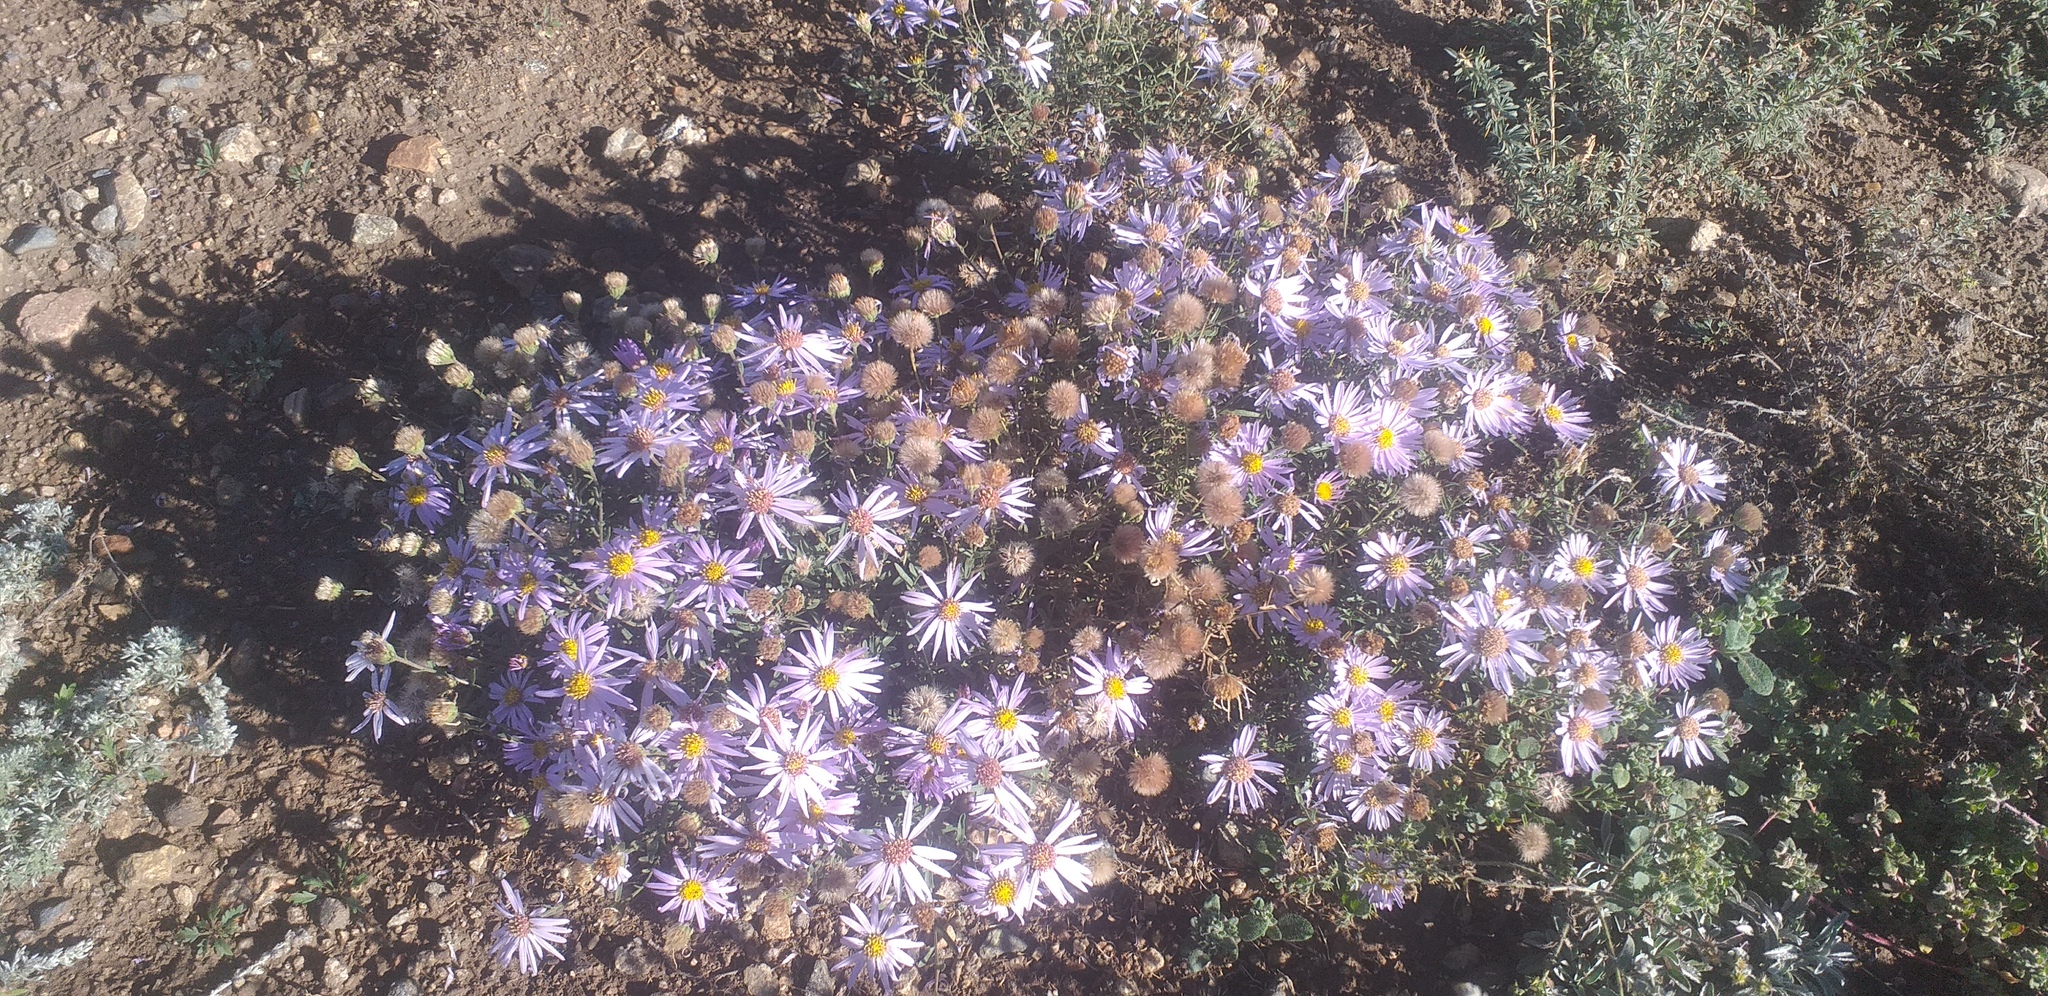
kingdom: Plantae
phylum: Tracheophyta
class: Magnoliopsida
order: Asterales
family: Asteraceae
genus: Heteropappus
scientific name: Heteropappus altaicus
